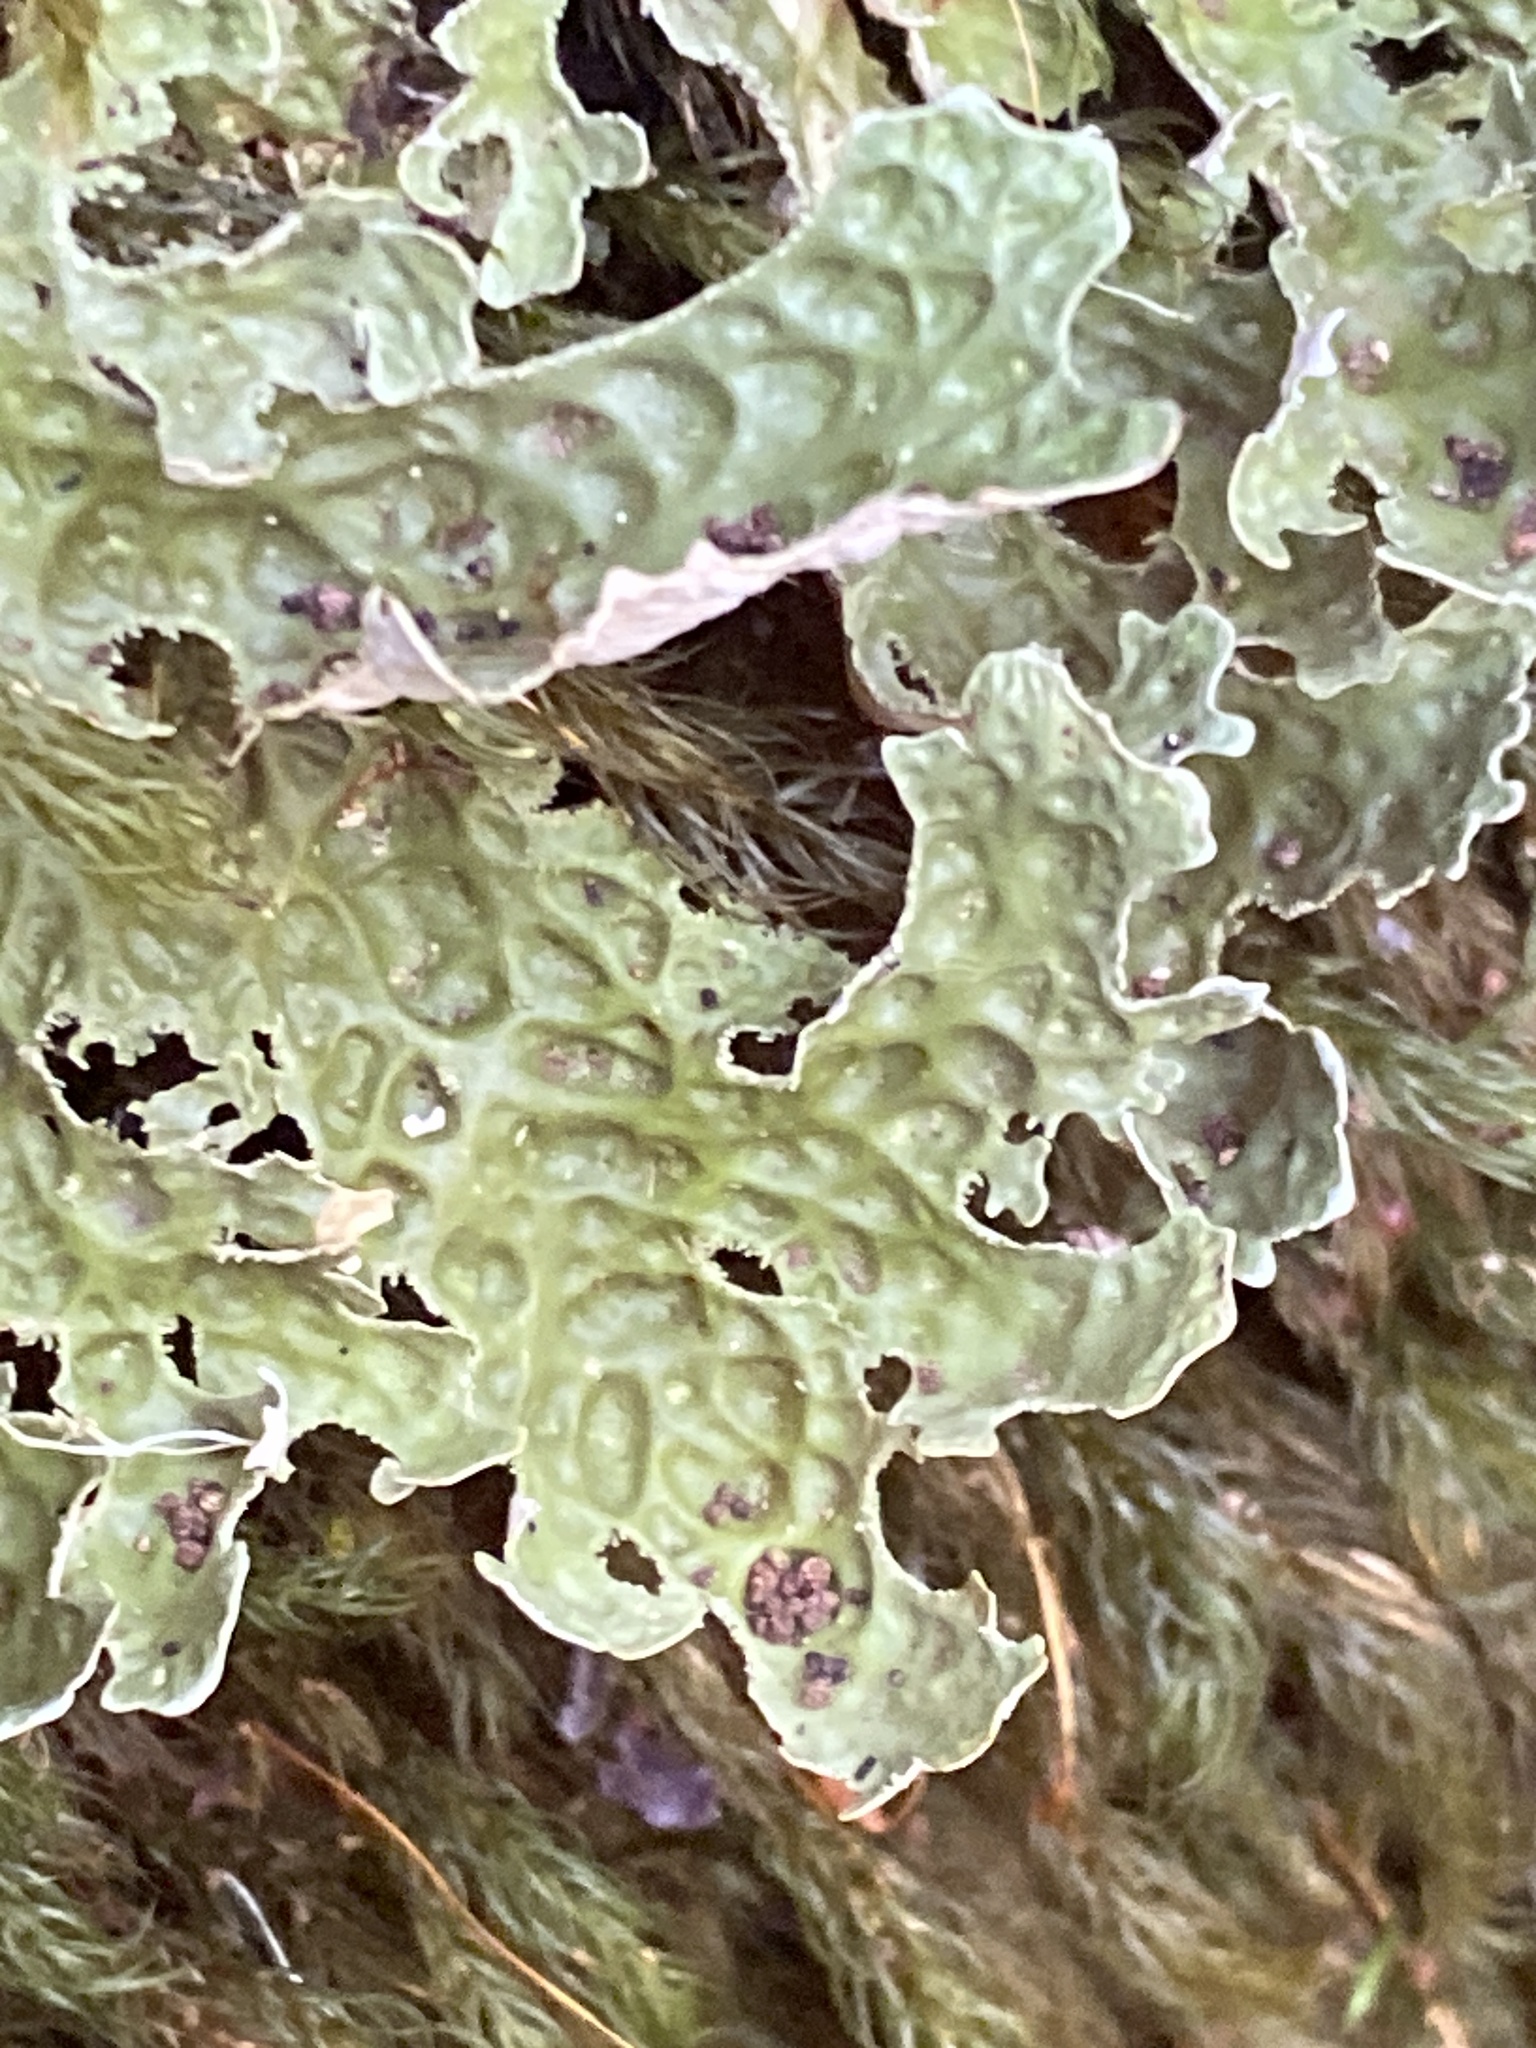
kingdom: Fungi
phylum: Ascomycota
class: Lecanoromycetes
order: Peltigerales
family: Lobariaceae
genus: Lobaria
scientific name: Lobaria pulmonaria
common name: Lungwort
